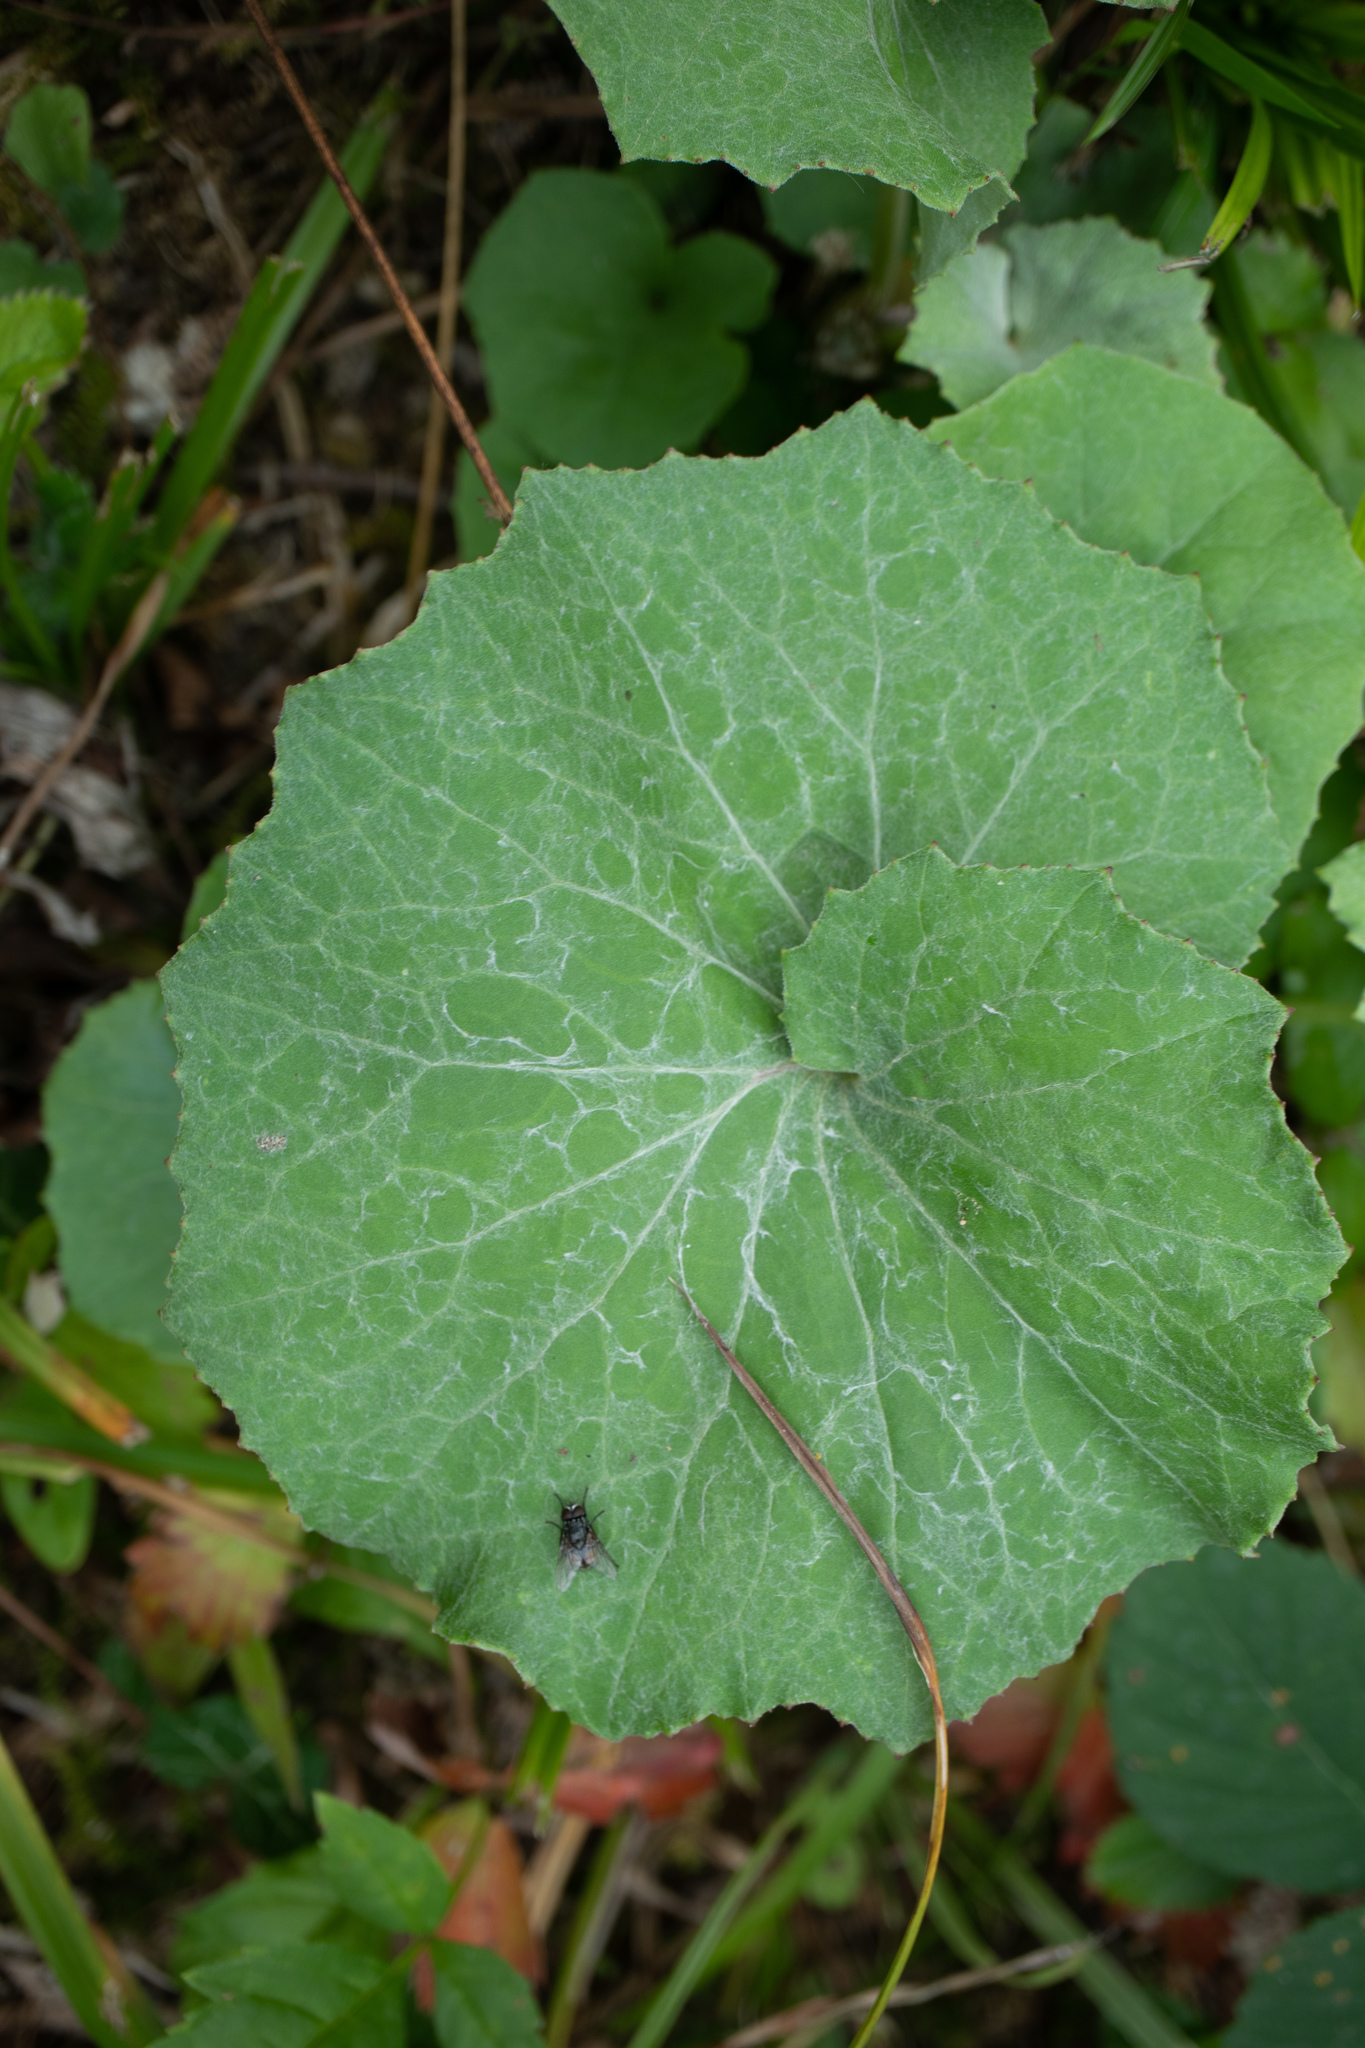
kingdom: Plantae
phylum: Tracheophyta
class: Magnoliopsida
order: Asterales
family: Asteraceae
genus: Tussilago
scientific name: Tussilago farfara
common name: Coltsfoot
